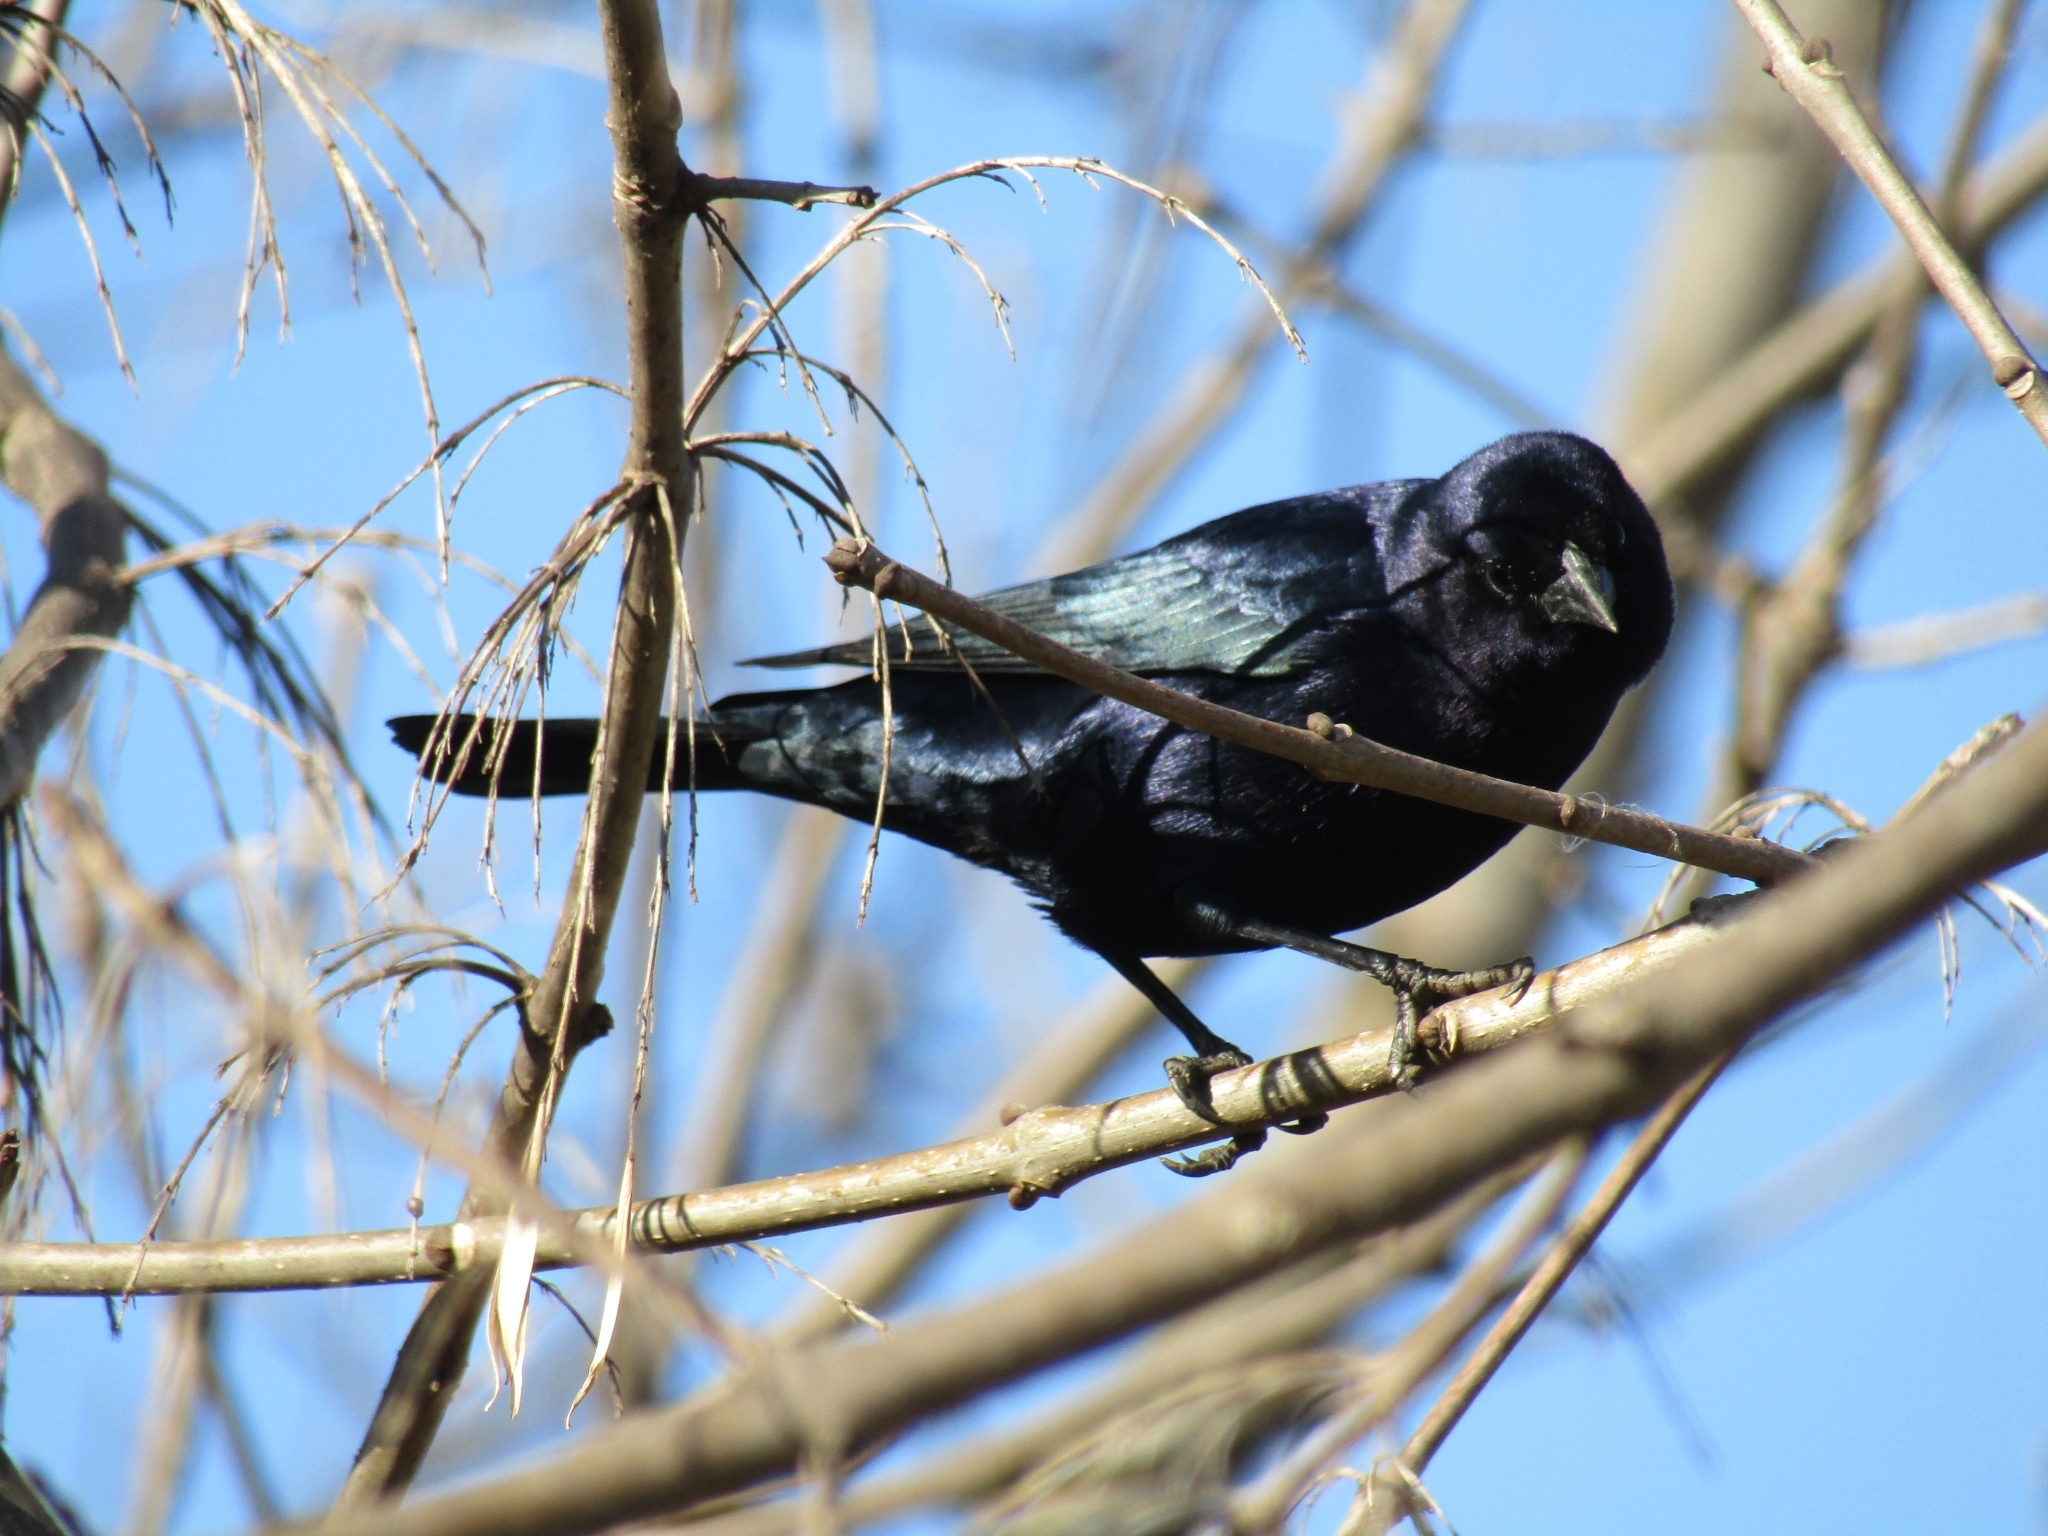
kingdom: Animalia
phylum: Chordata
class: Aves
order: Passeriformes
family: Icteridae
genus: Molothrus
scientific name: Molothrus bonariensis
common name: Shiny cowbird
